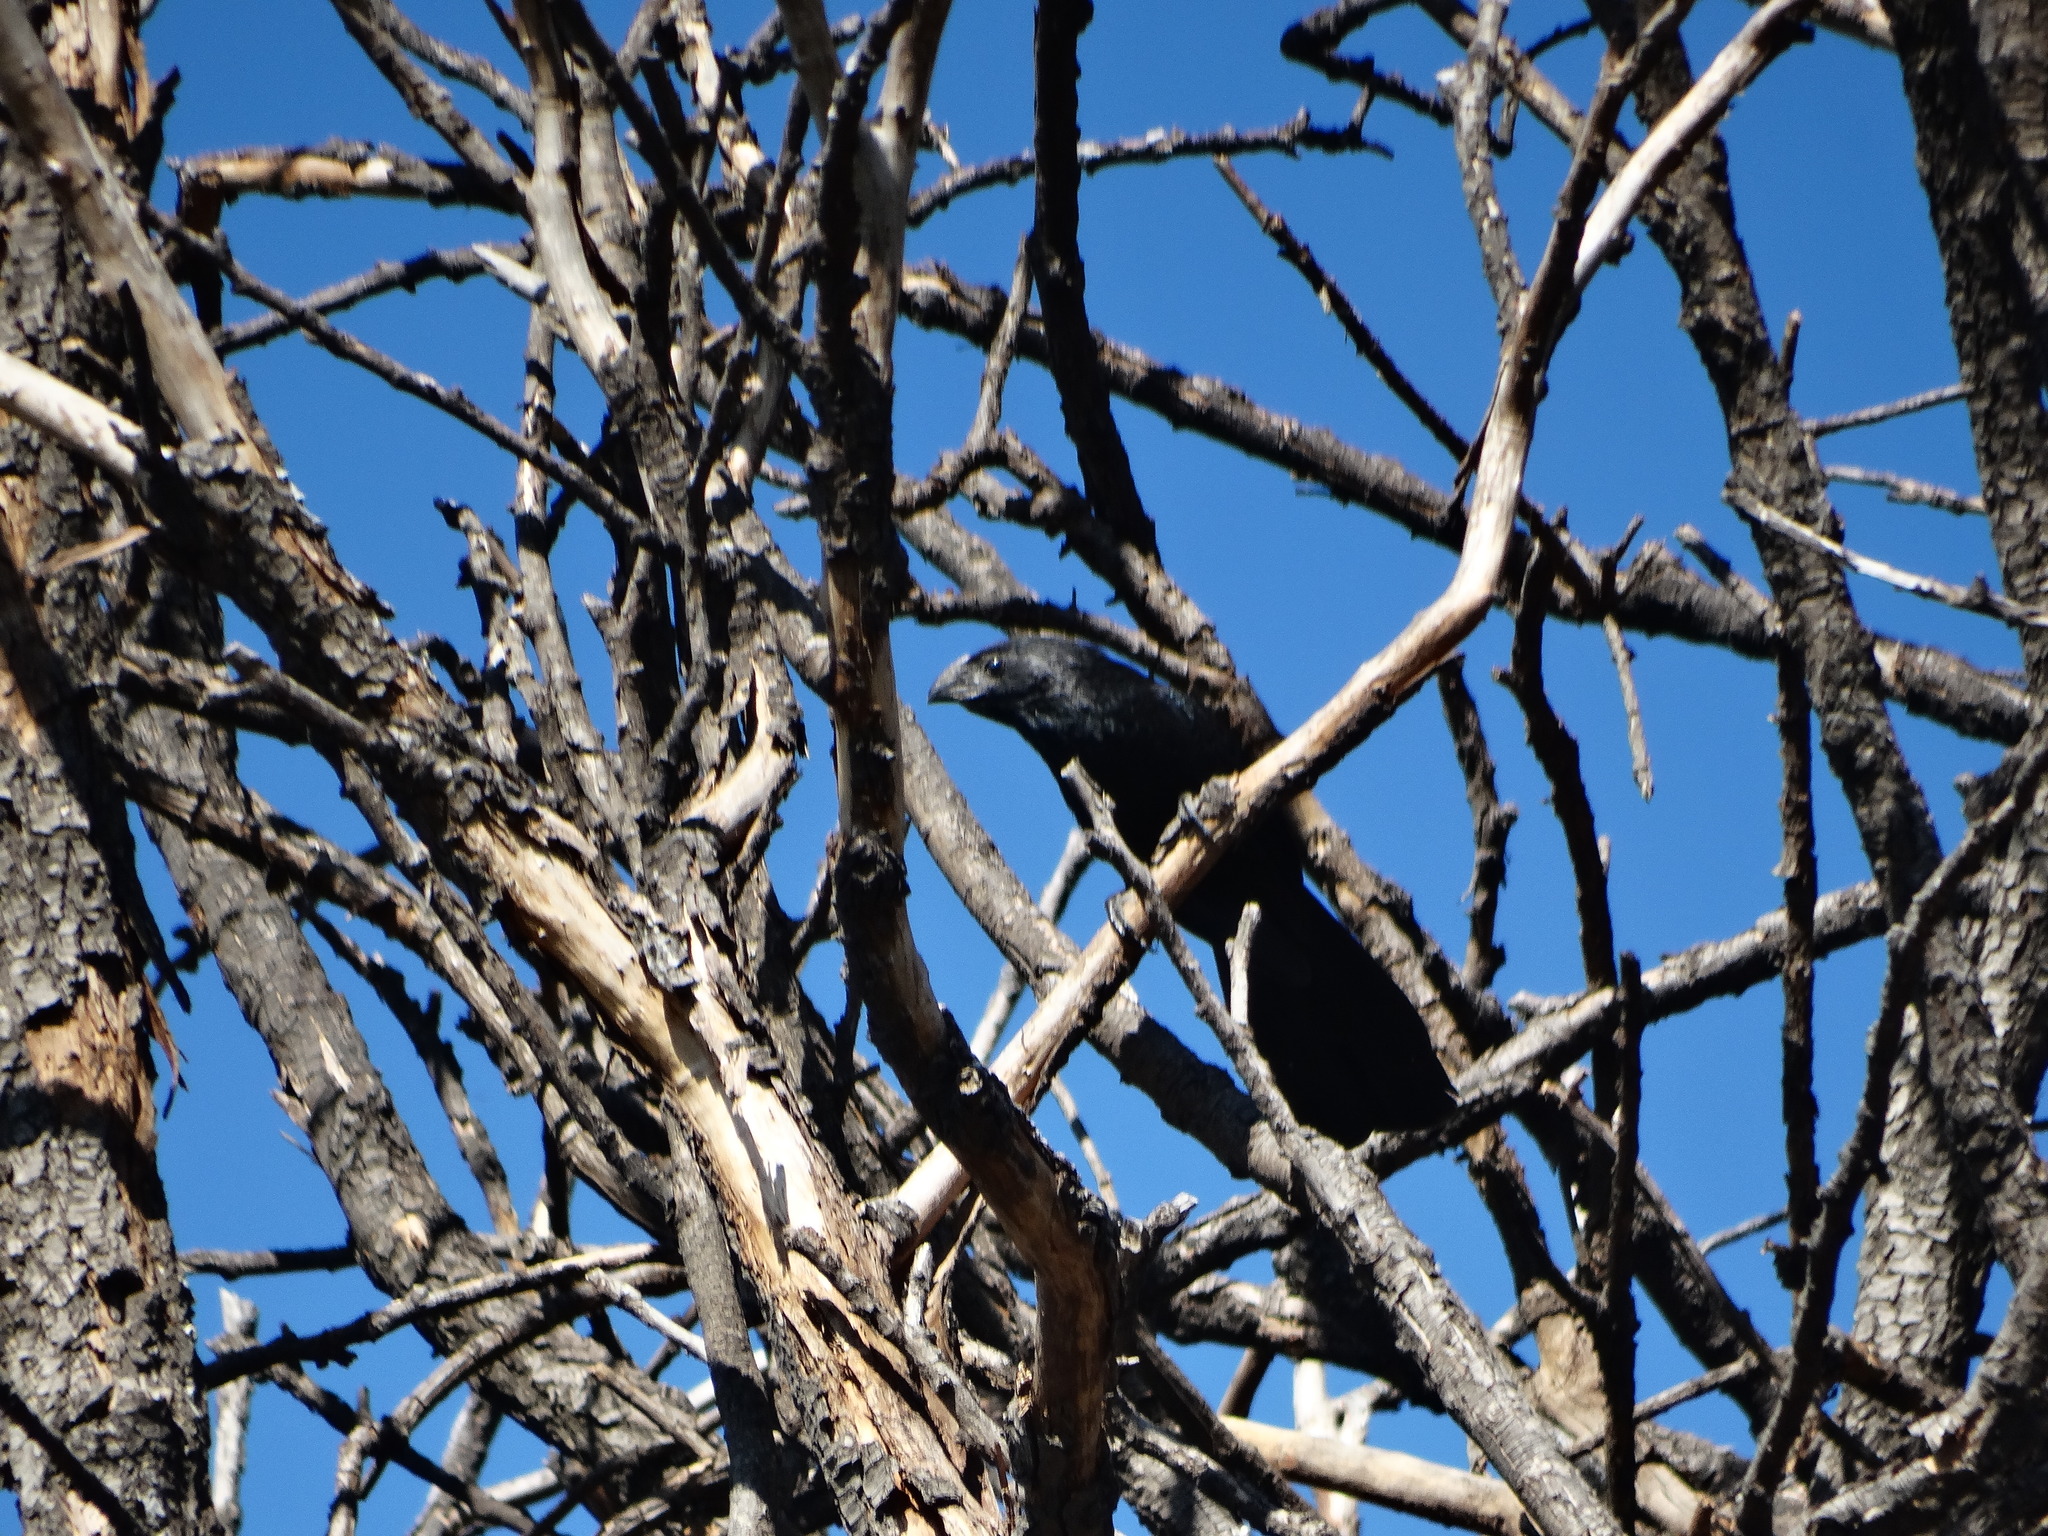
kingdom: Animalia
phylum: Chordata
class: Aves
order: Cuculiformes
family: Cuculidae
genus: Crotophaga
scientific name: Crotophaga sulcirostris
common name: Groove-billed ani
